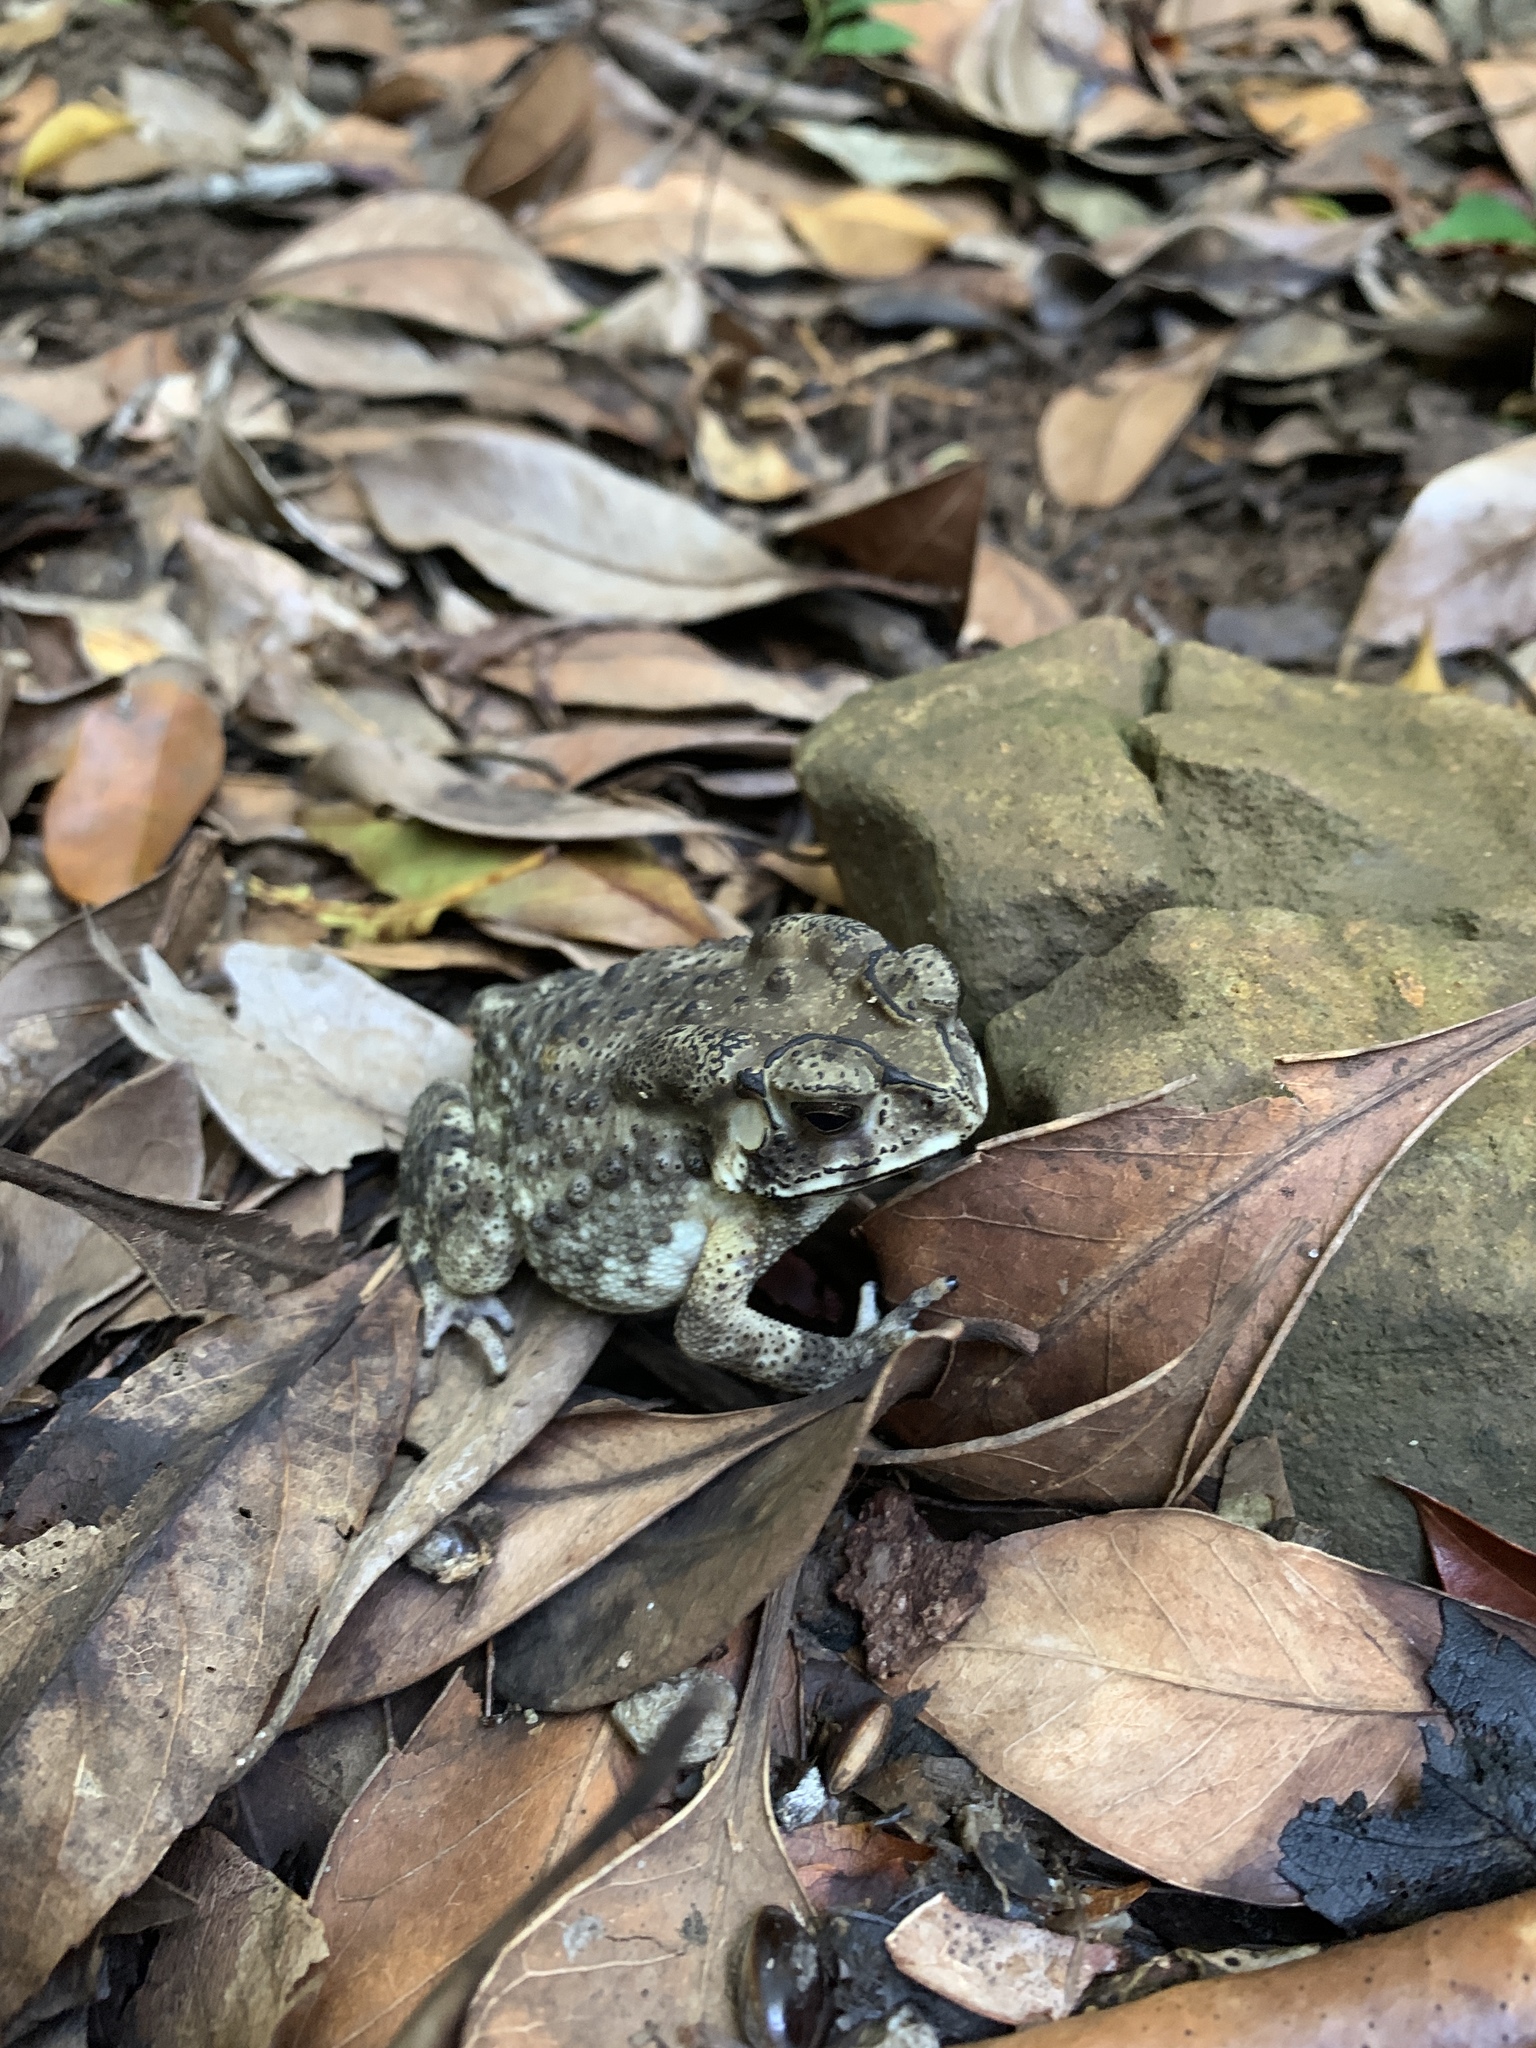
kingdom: Animalia
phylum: Chordata
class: Amphibia
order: Anura
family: Bufonidae
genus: Duttaphrynus
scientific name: Duttaphrynus melanostictus
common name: Common sunda toad
